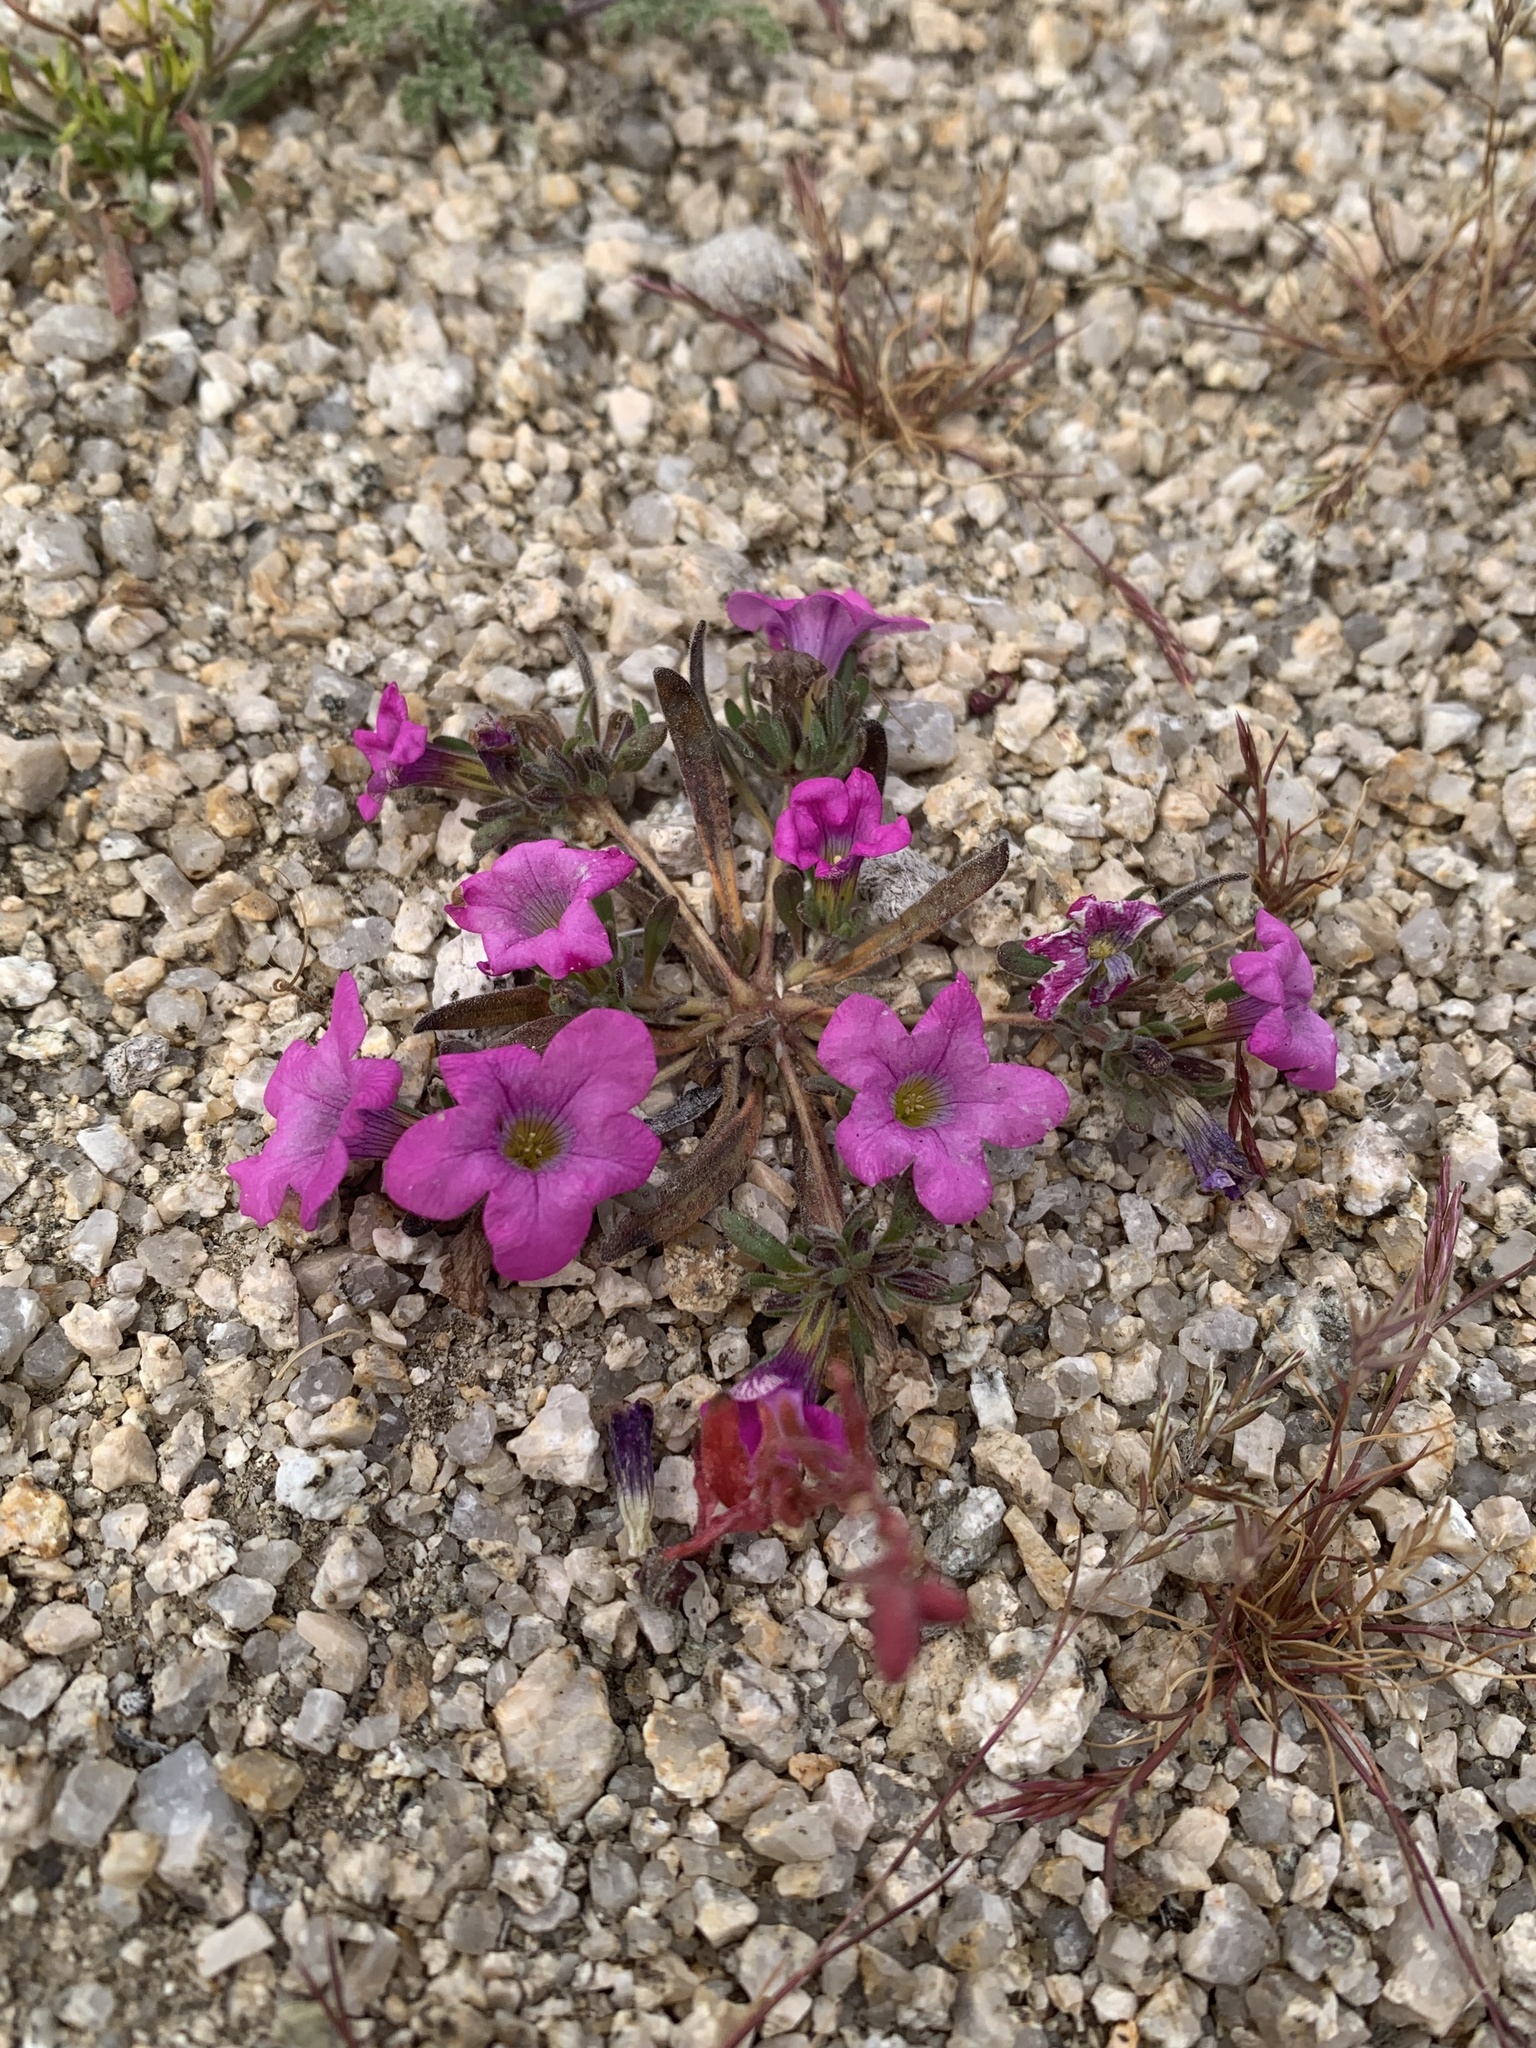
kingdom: Plantae
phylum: Tracheophyta
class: Magnoliopsida
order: Boraginales
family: Namaceae
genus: Nama
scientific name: Nama demissa
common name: Leafy nama
